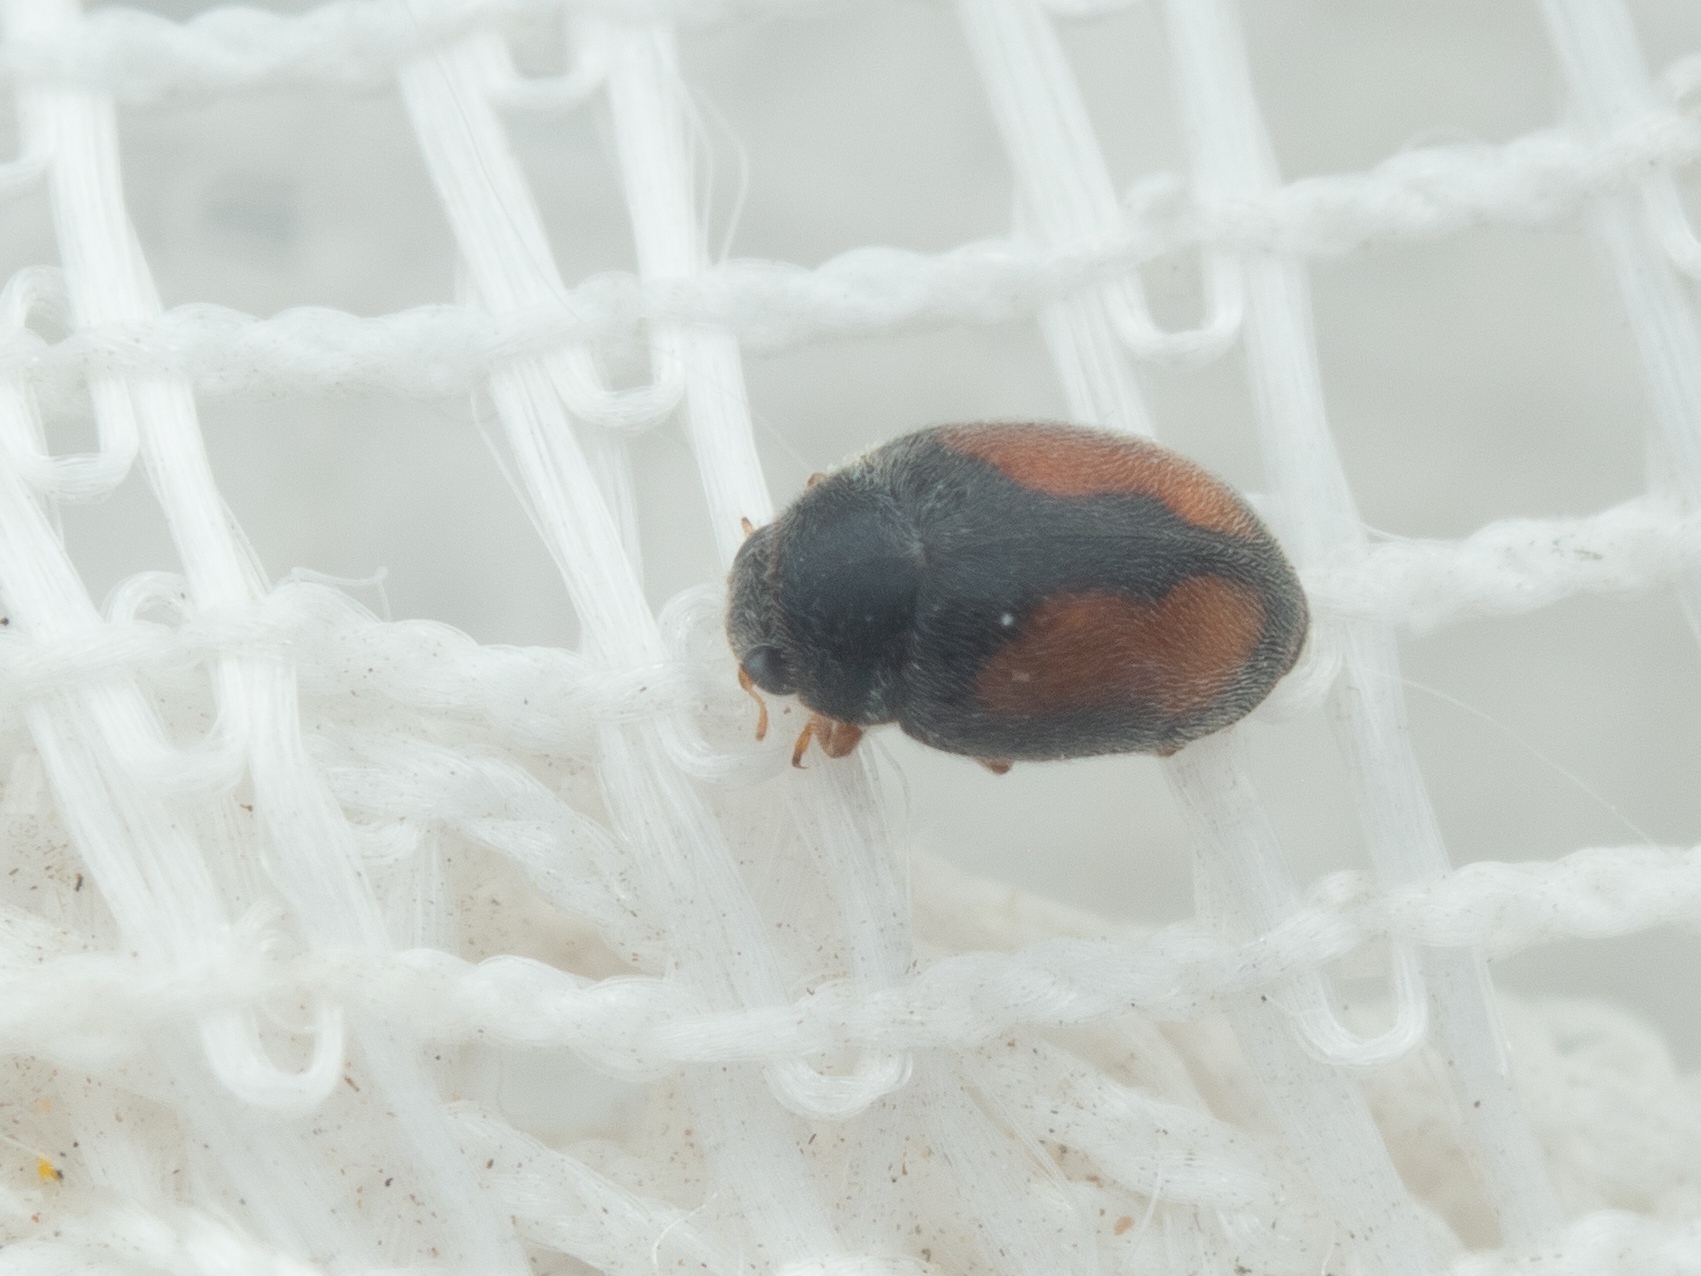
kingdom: Animalia
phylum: Arthropoda
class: Insecta
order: Coleoptera
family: Coccinellidae
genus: Nephus
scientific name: Nephus redtenbacheri
